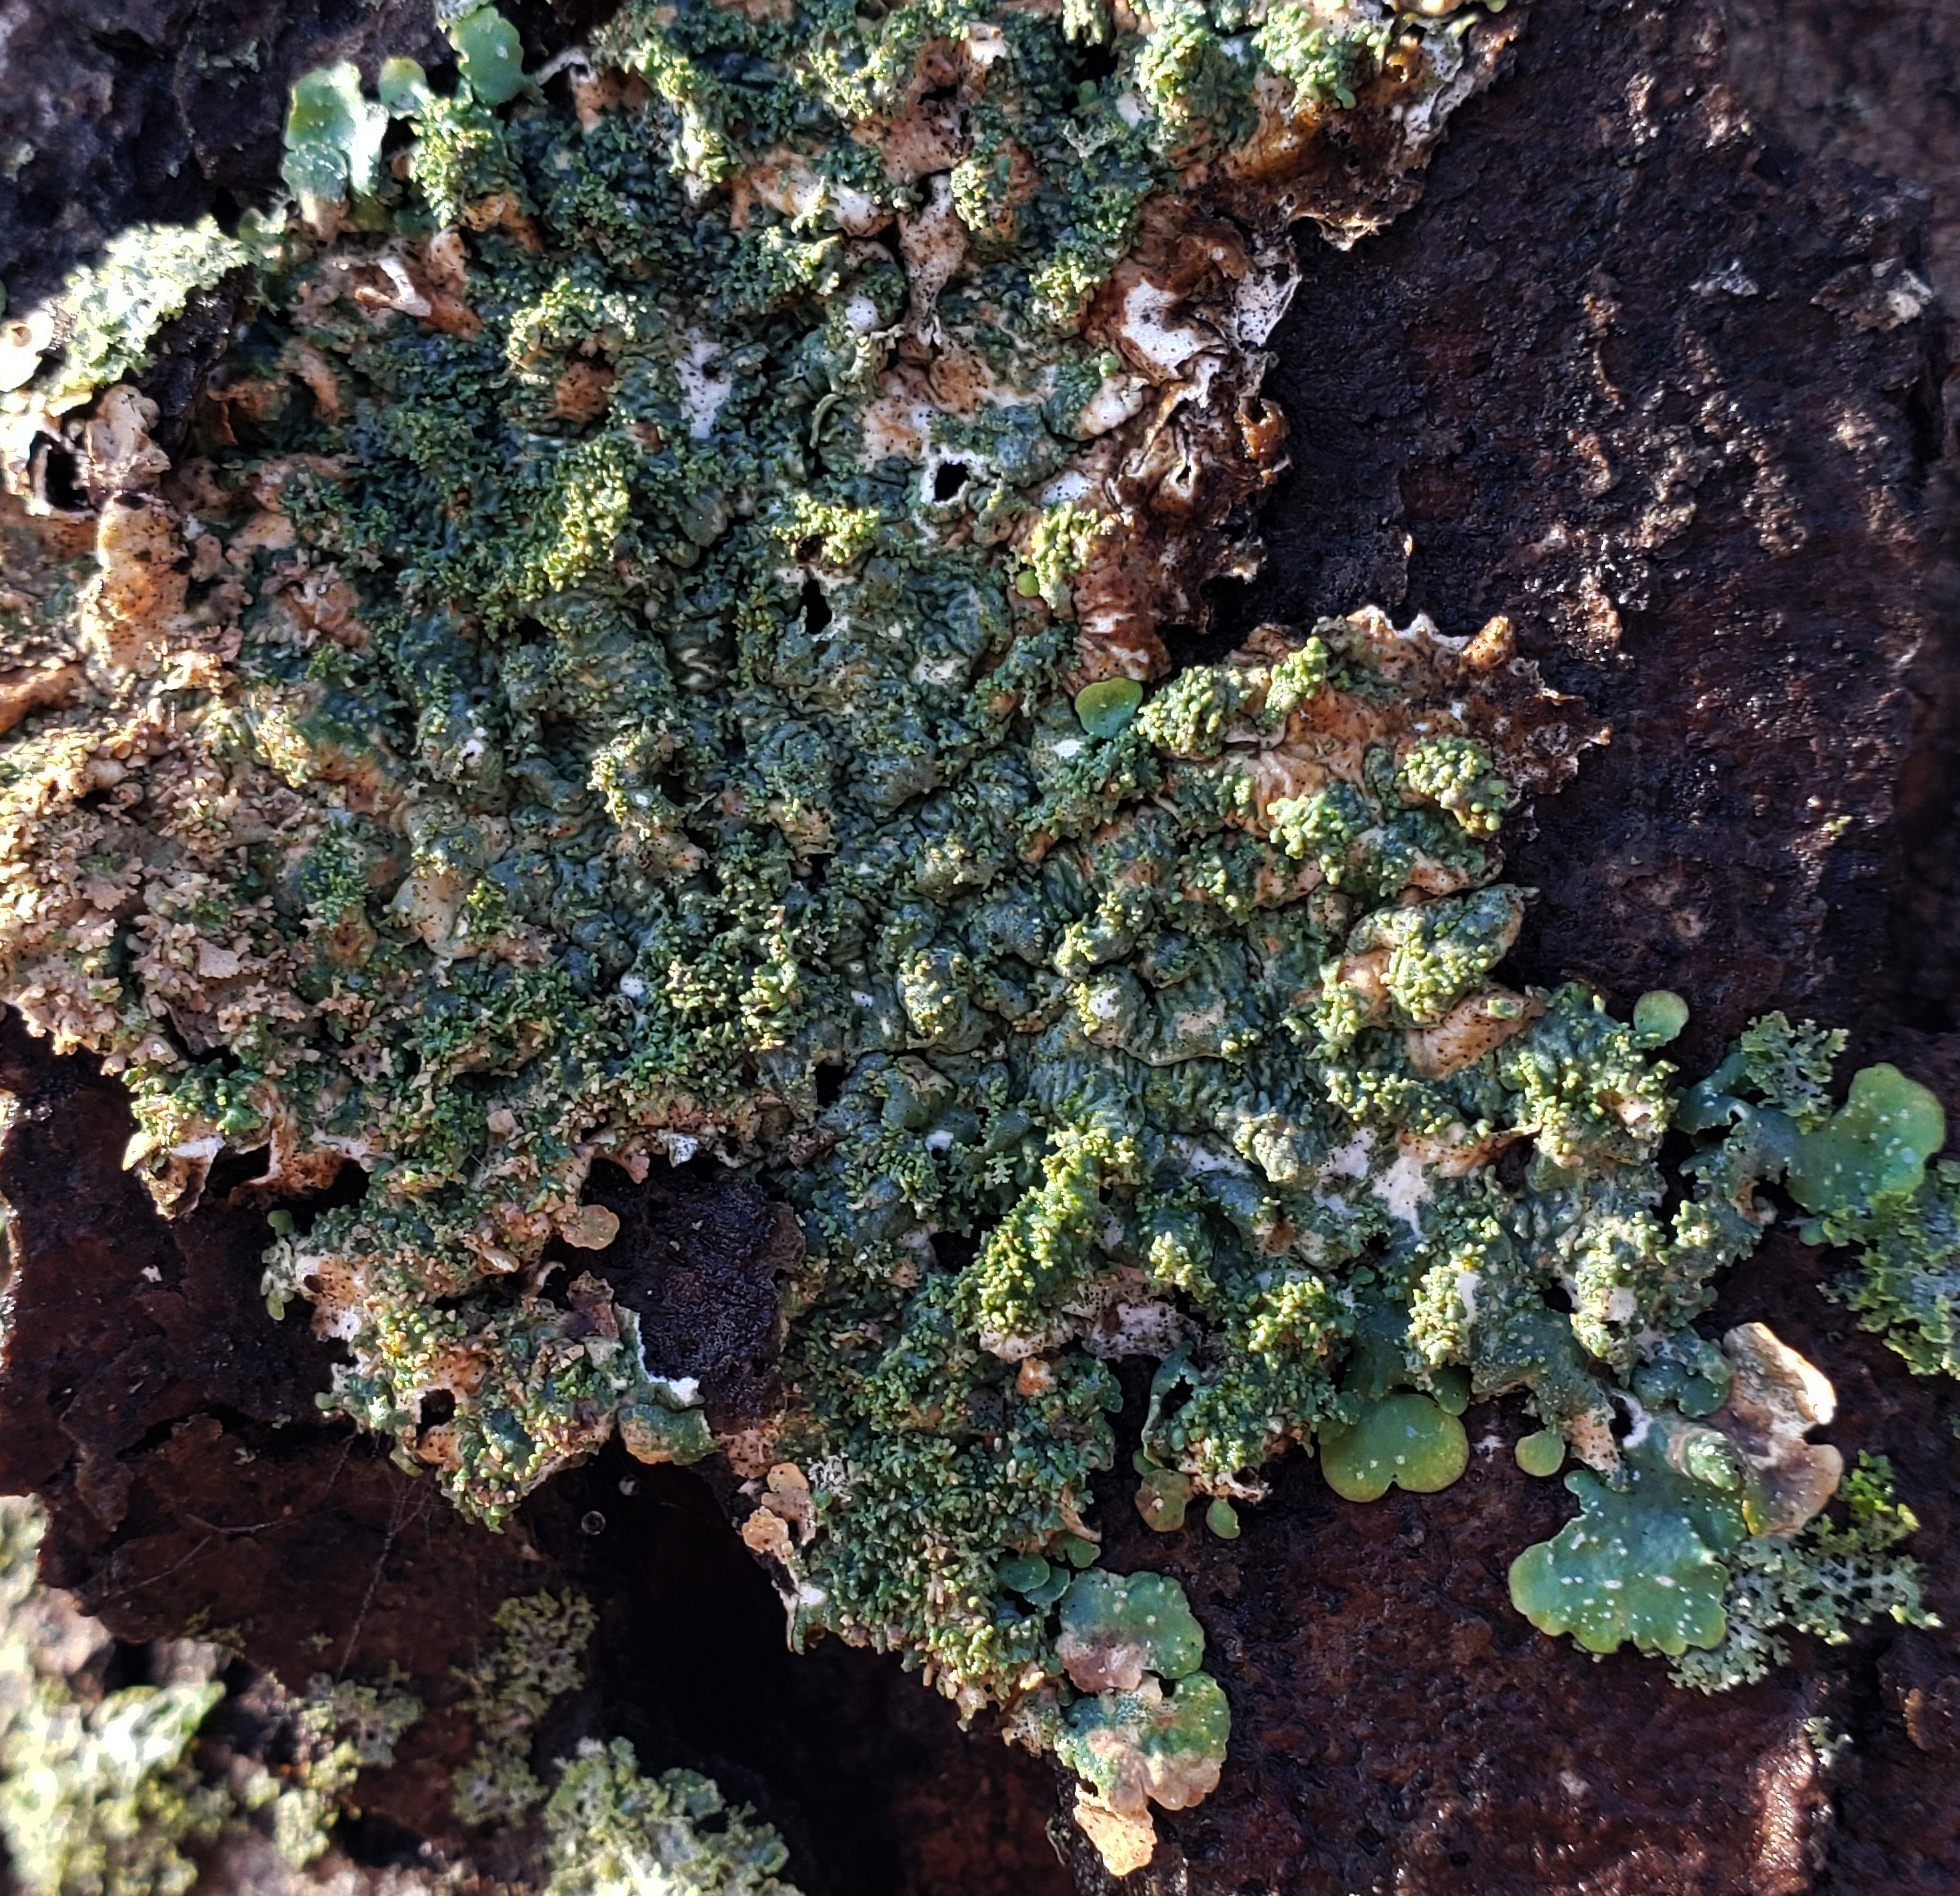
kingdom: Fungi
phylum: Ascomycota
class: Lecanoromycetes
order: Lecanorales
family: Parmeliaceae
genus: Punctelia
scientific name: Punctelia rudecta
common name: Rough speckled shield lichen
